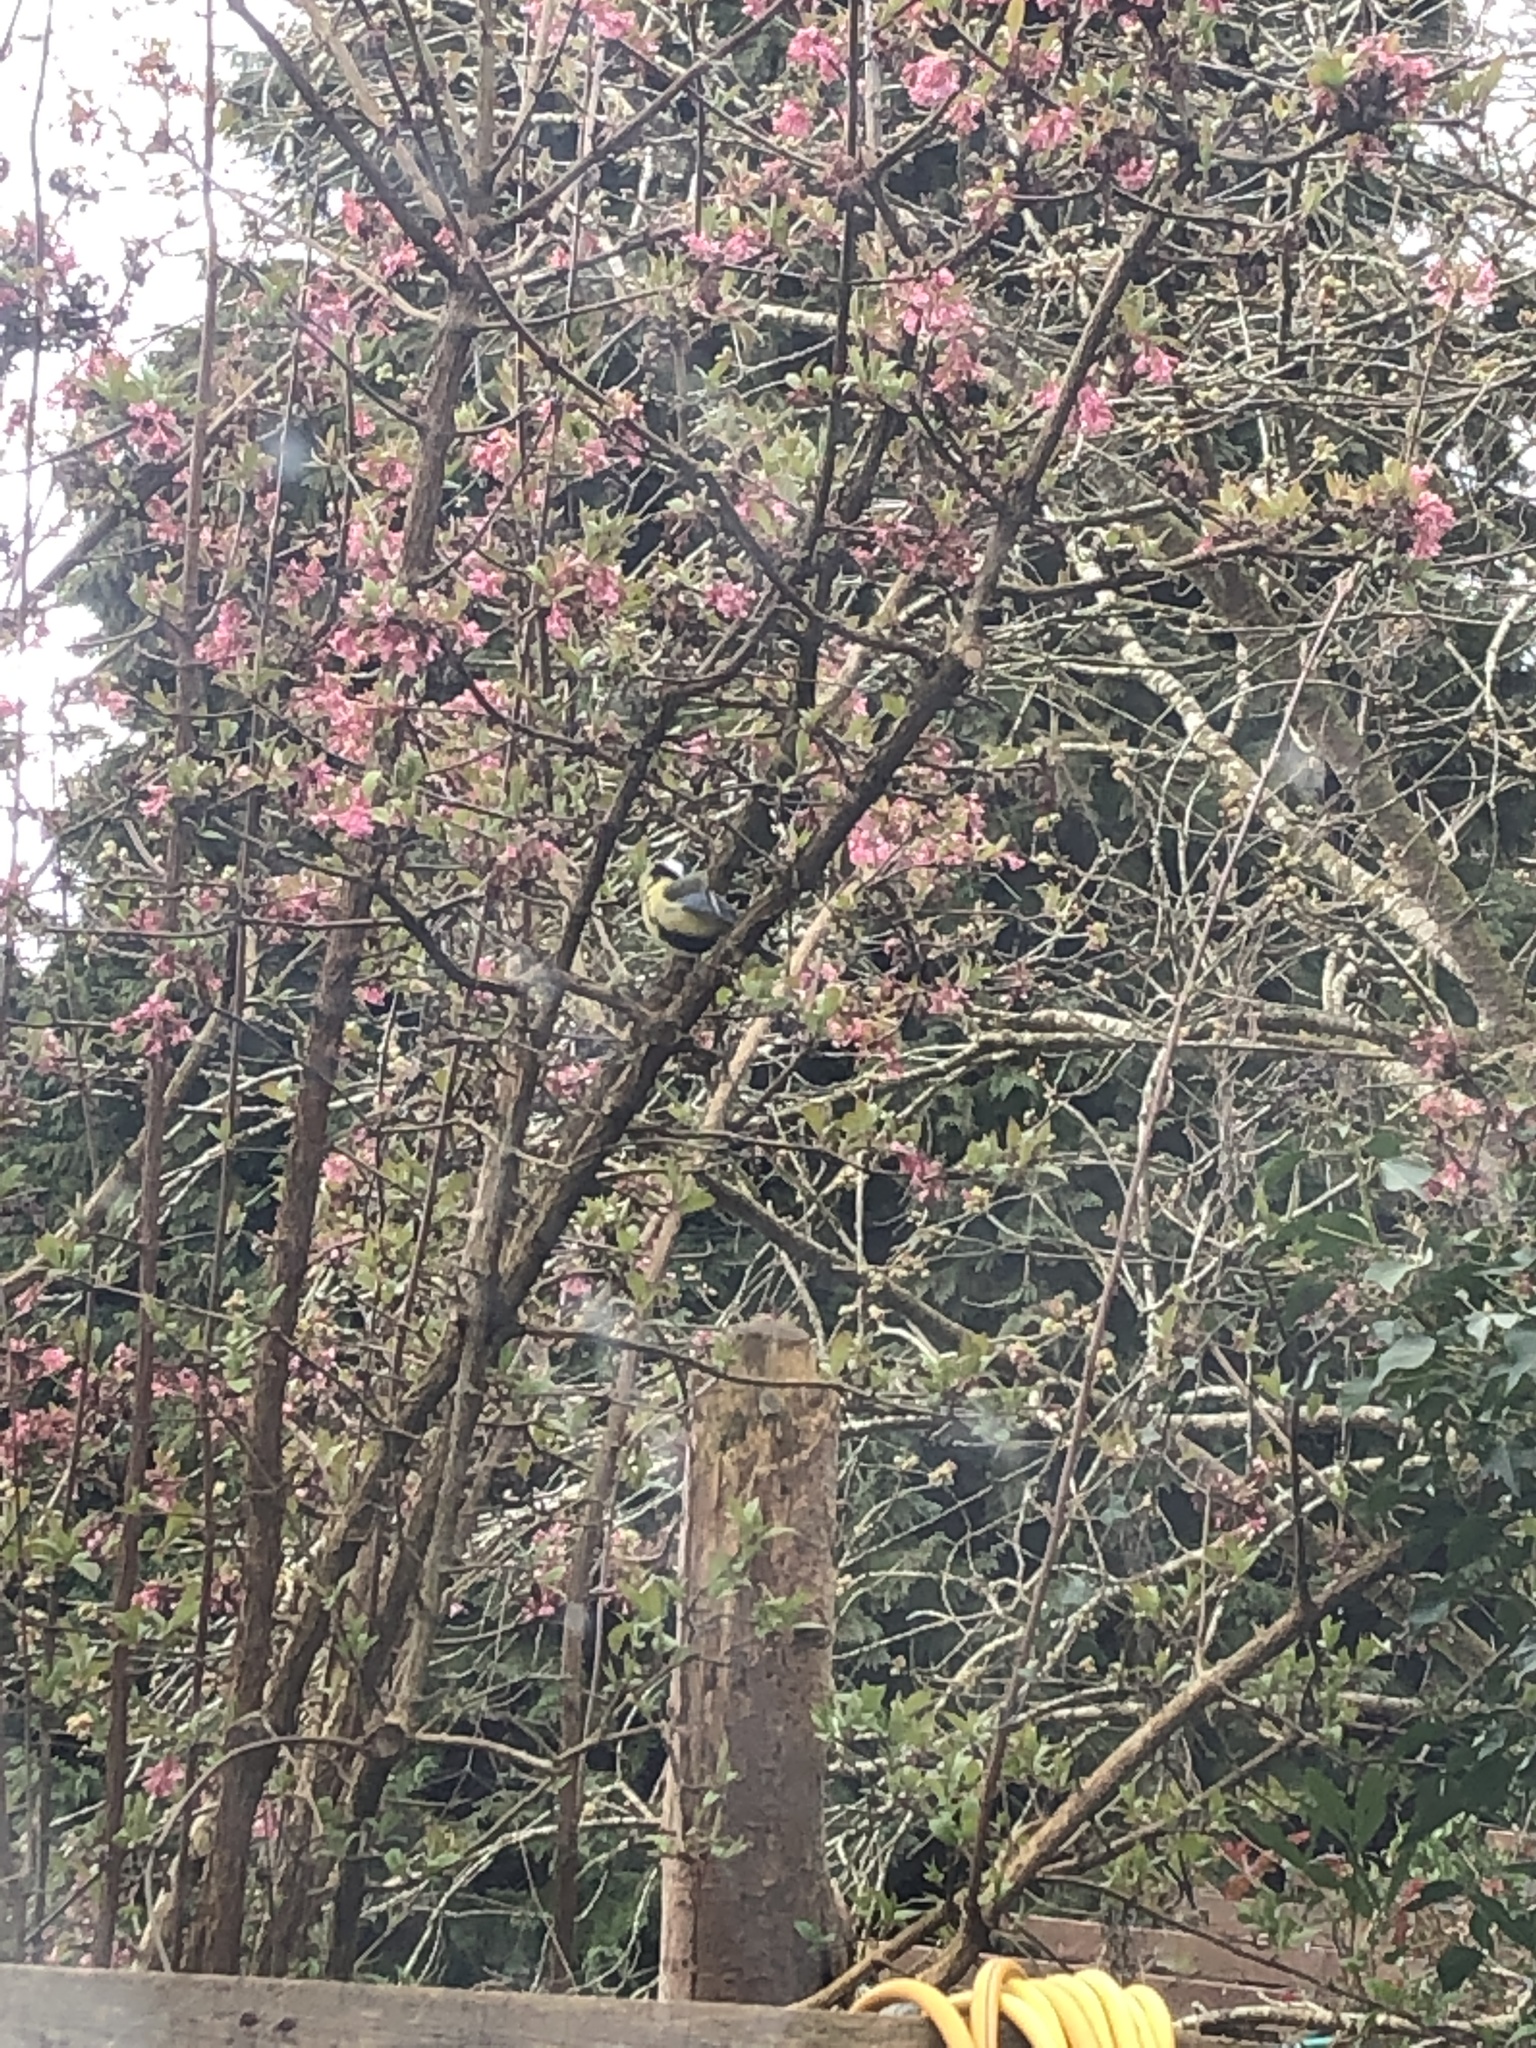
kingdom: Animalia
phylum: Chordata
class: Aves
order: Passeriformes
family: Paridae
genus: Parus
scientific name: Parus major
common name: Great tit
